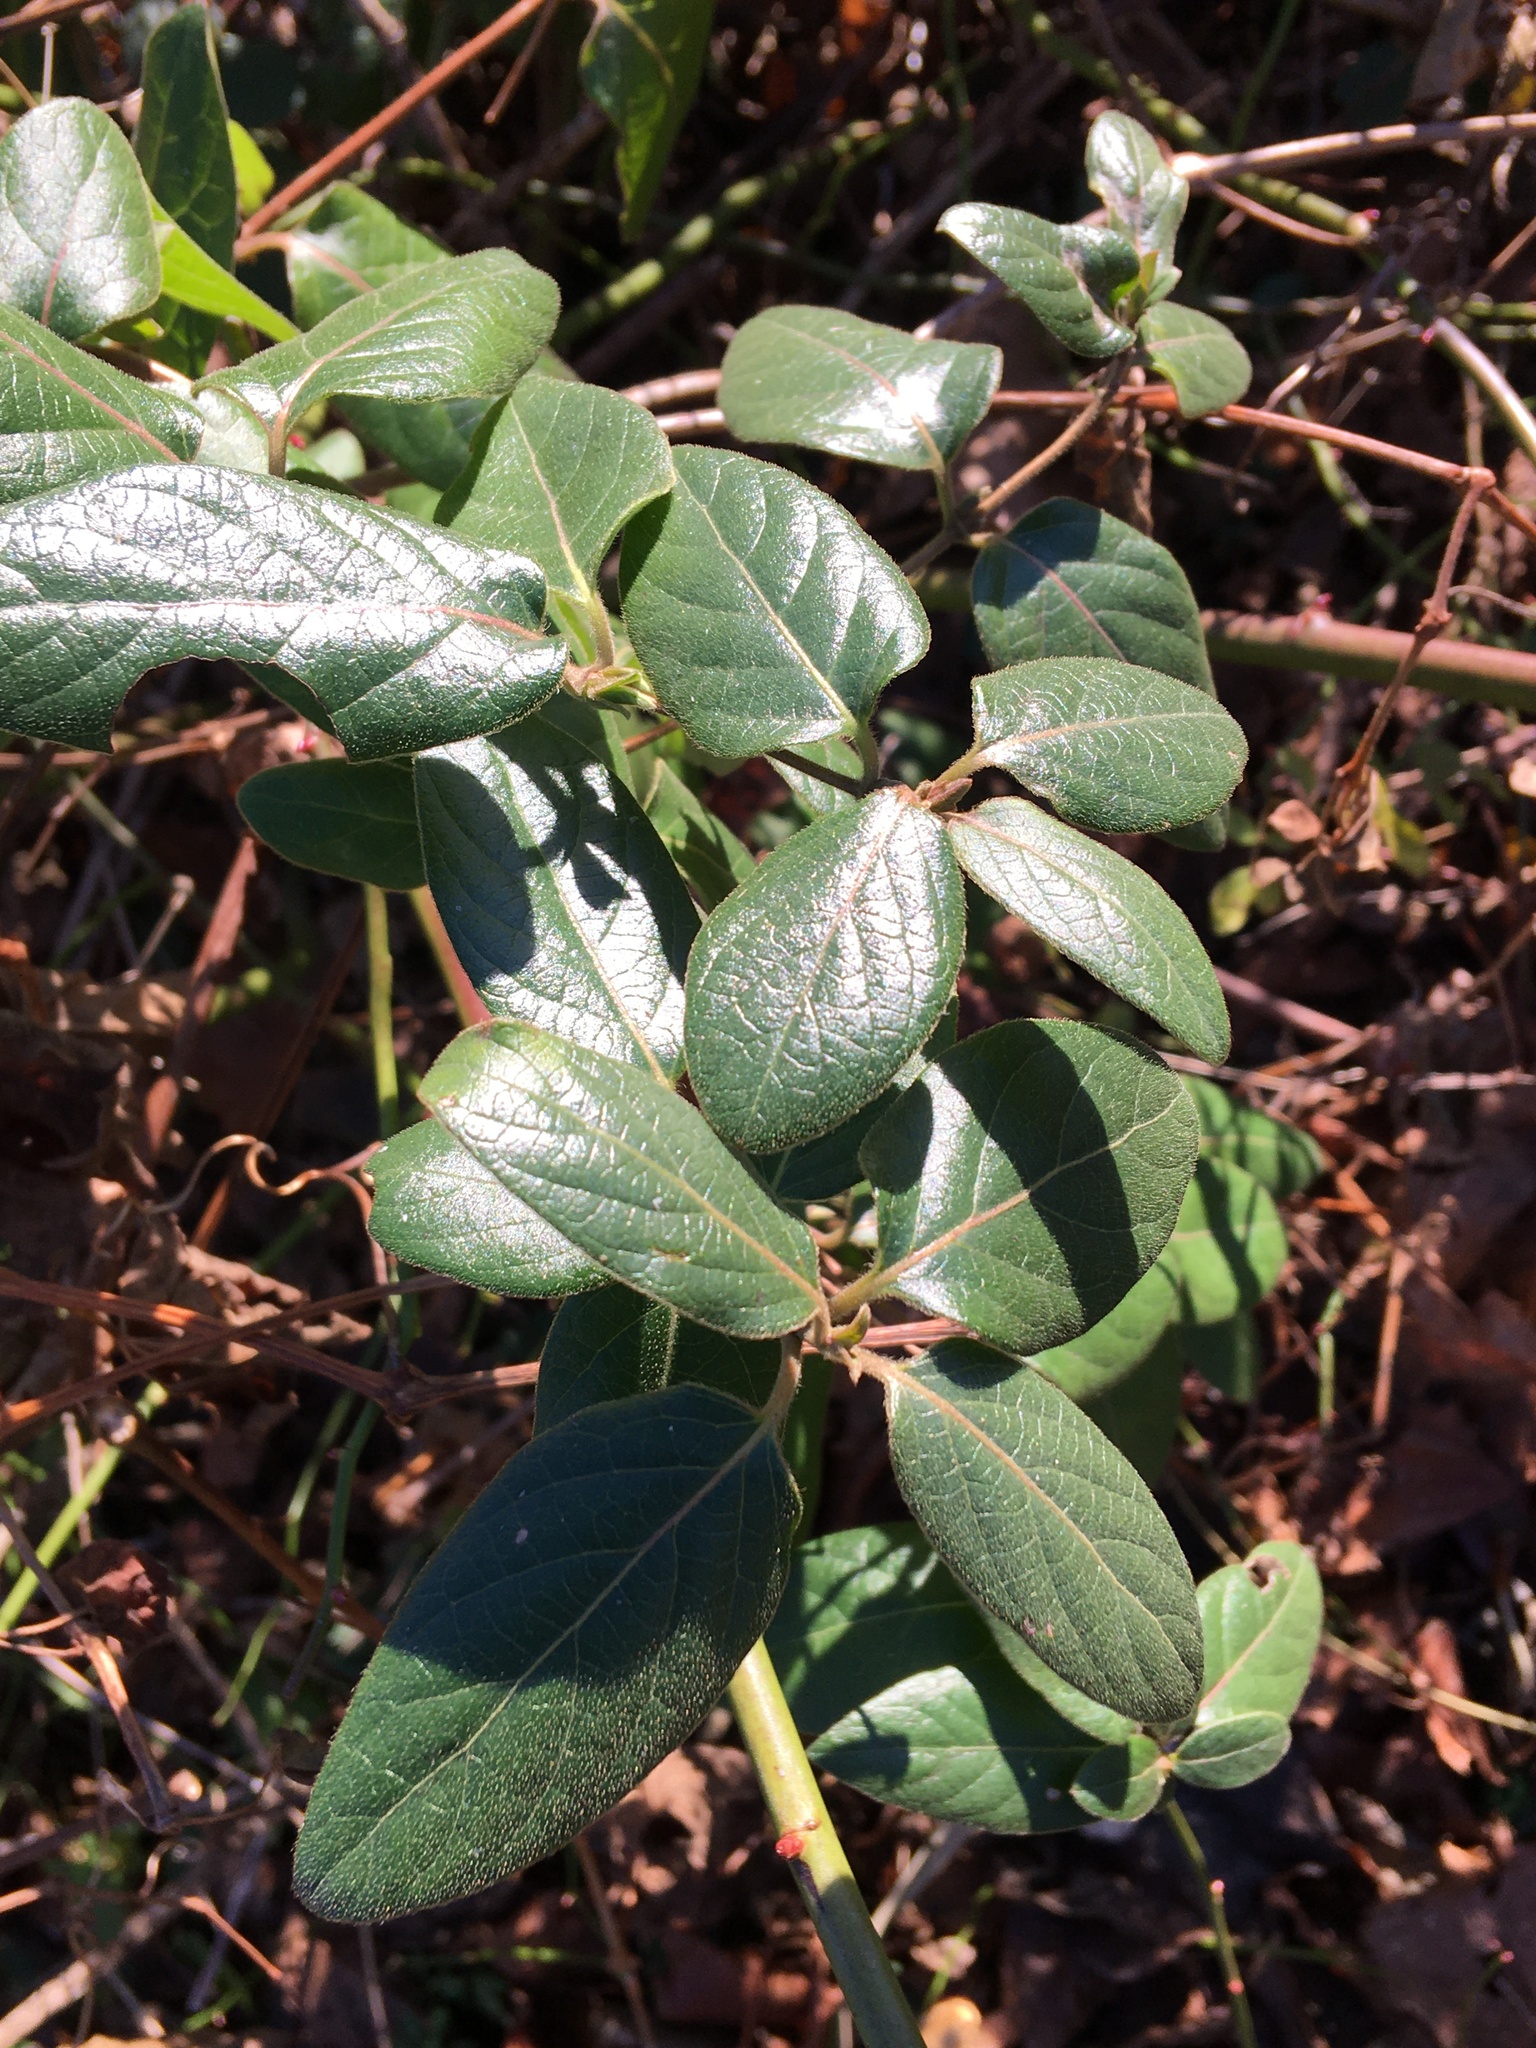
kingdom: Plantae
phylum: Tracheophyta
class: Magnoliopsida
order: Dipsacales
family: Caprifoliaceae
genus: Lonicera
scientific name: Lonicera japonica
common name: Japanese honeysuckle
